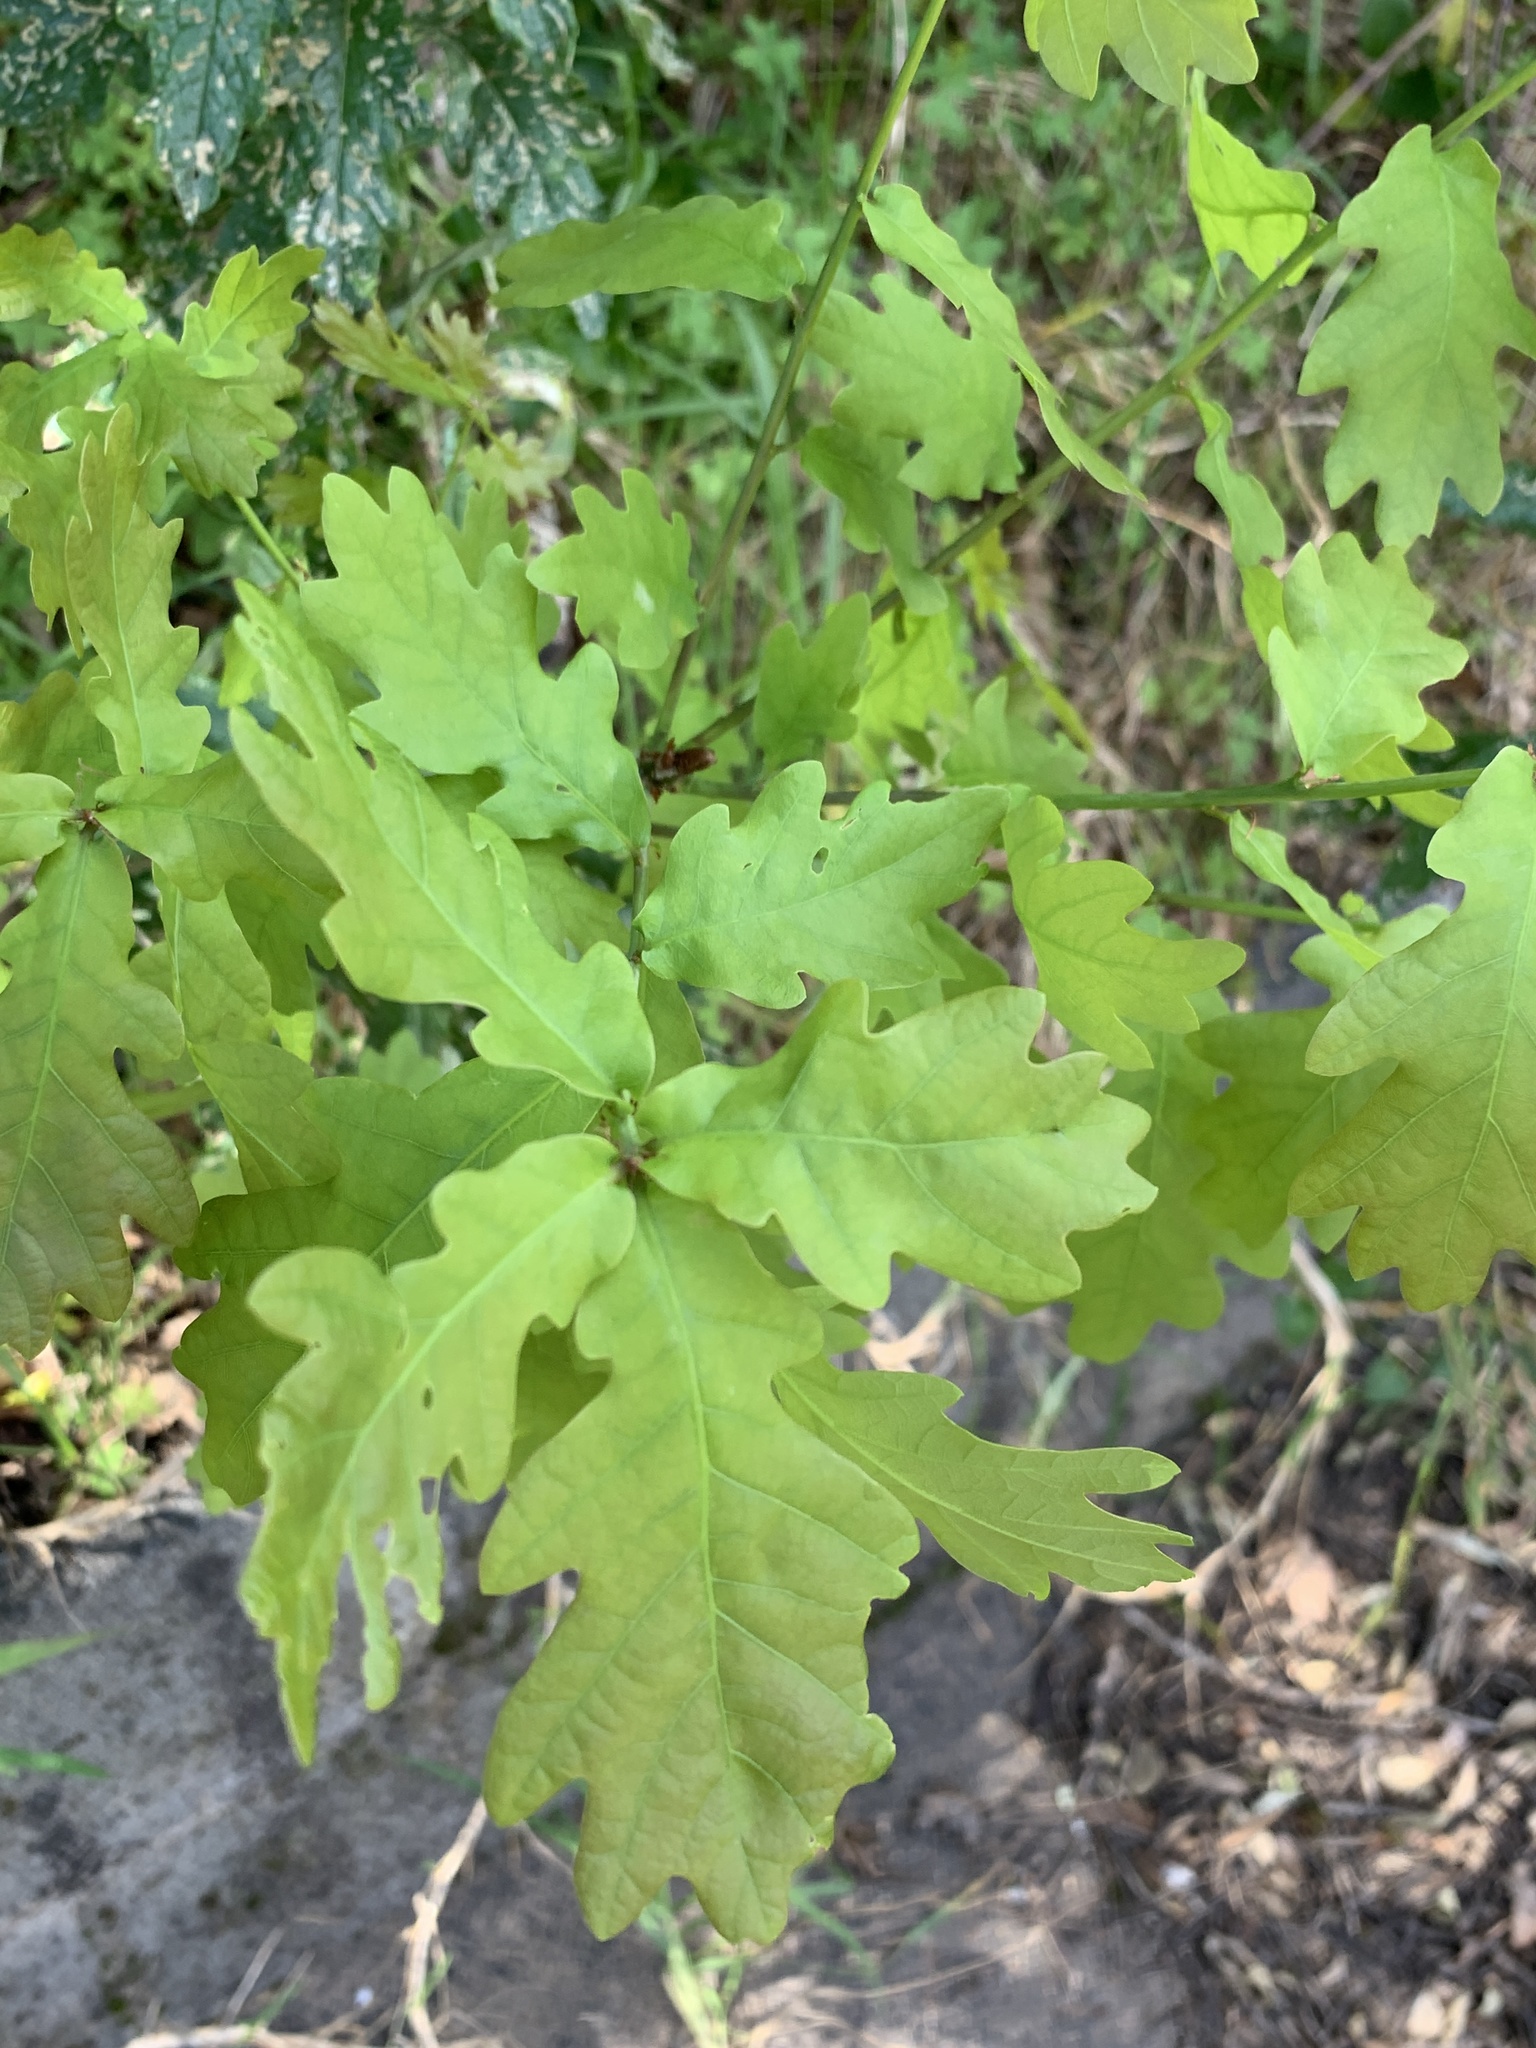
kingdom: Plantae
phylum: Tracheophyta
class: Magnoliopsida
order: Fagales
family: Fagaceae
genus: Quercus
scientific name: Quercus robur
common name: Pedunculate oak
